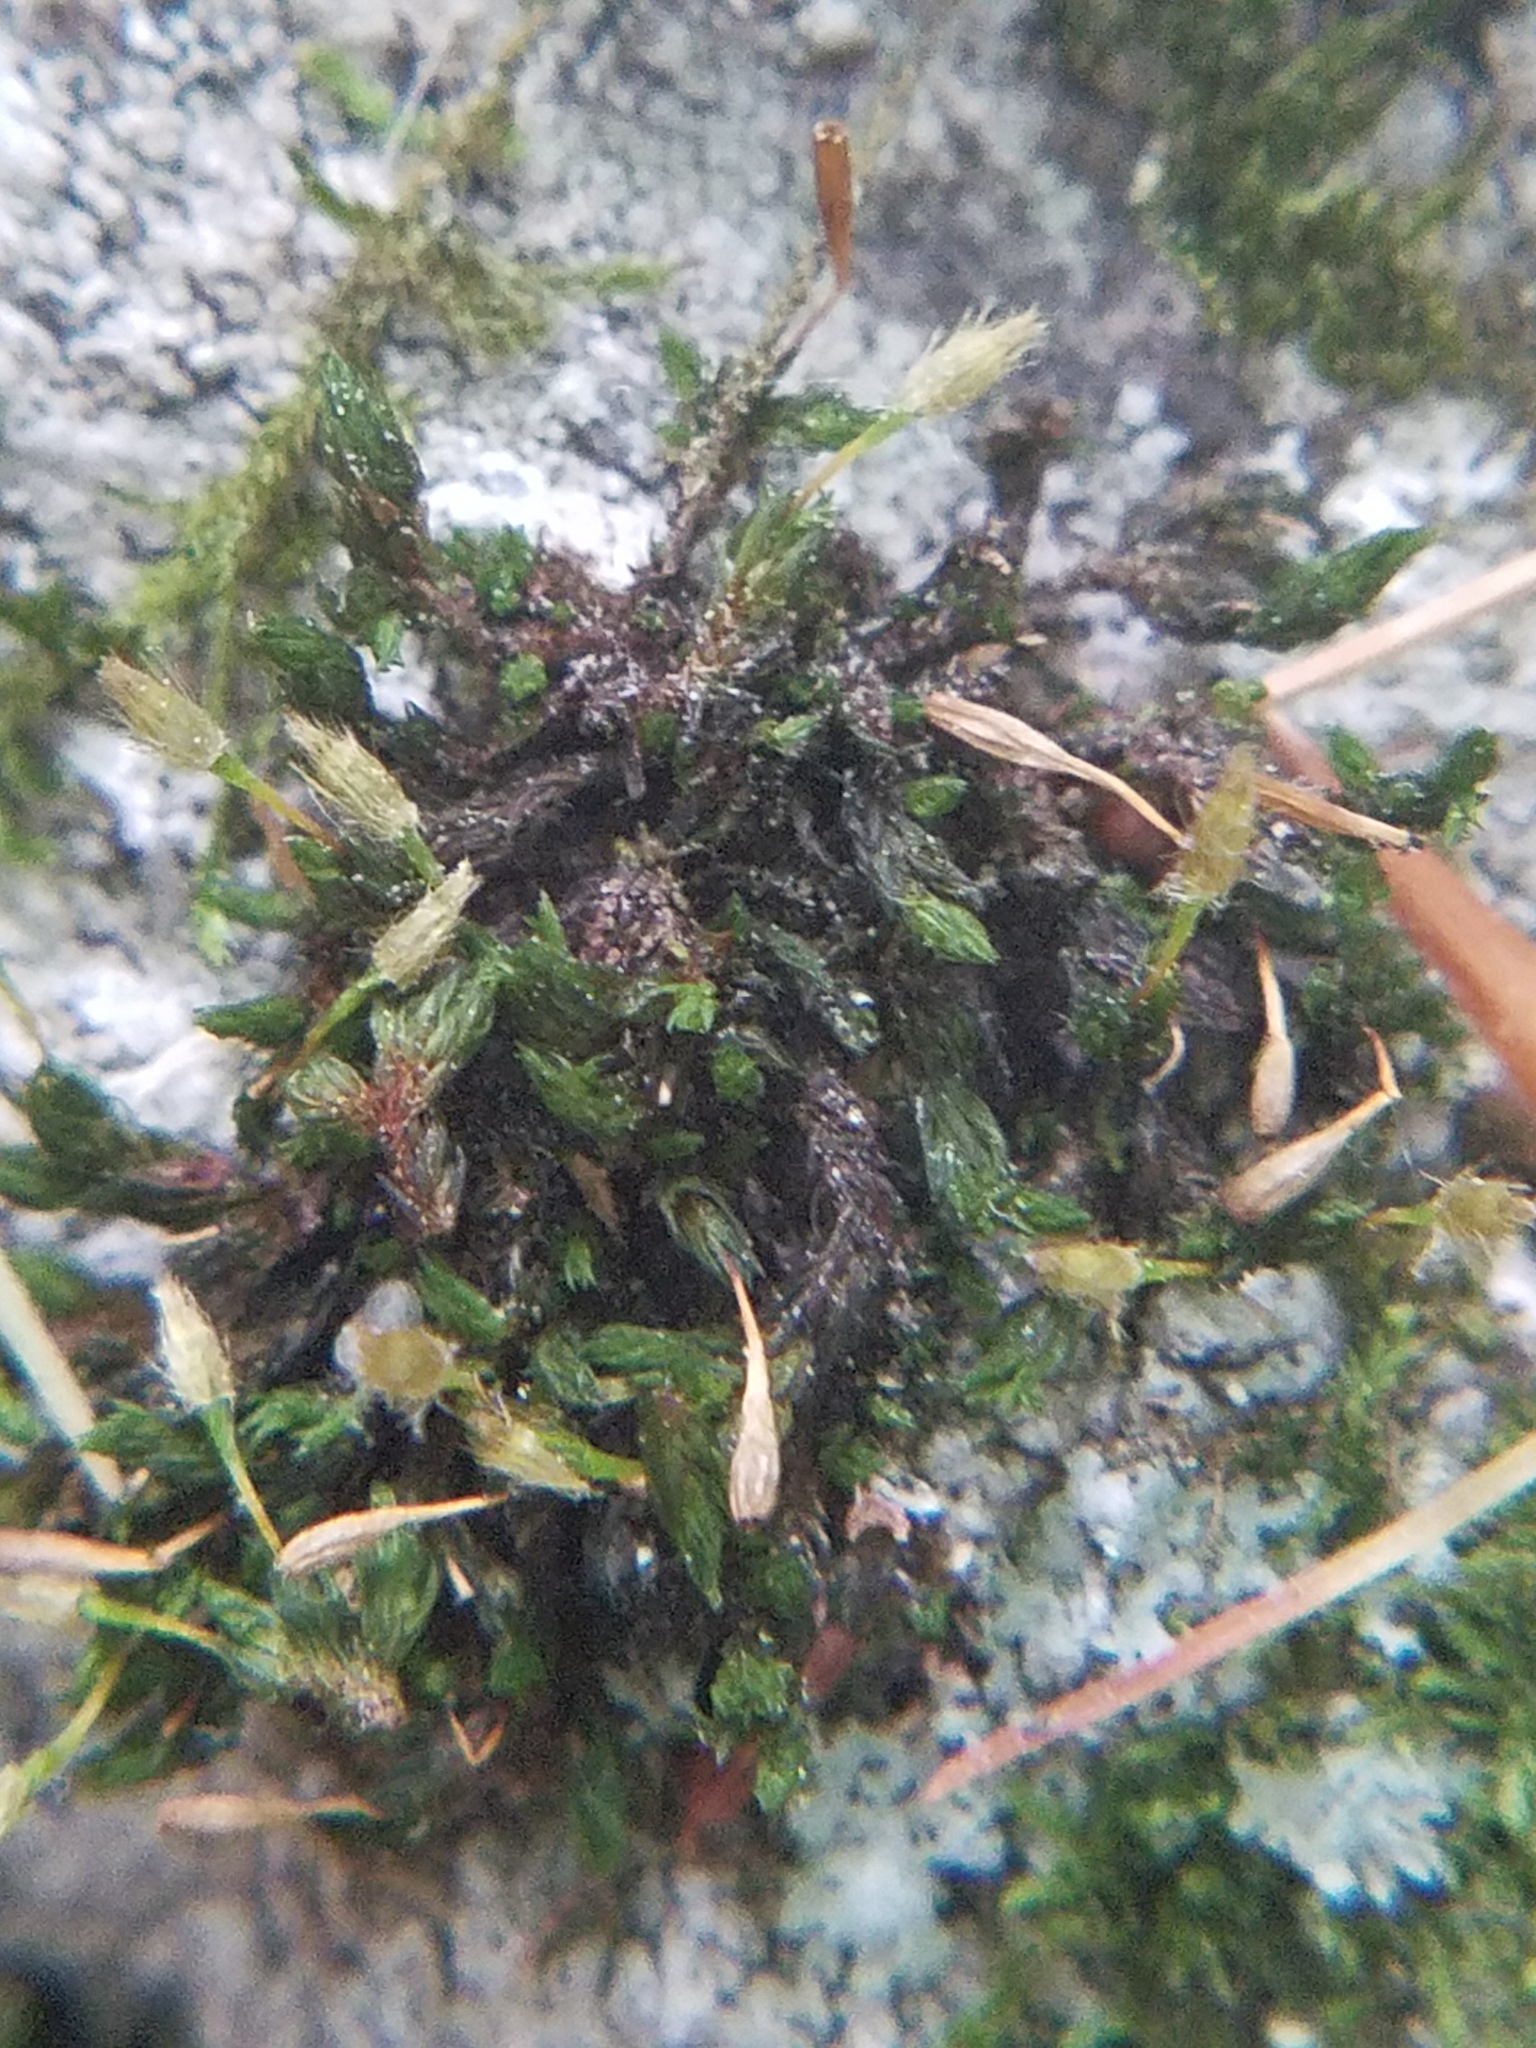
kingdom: Plantae
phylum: Bryophyta
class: Bryopsida
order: Orthotrichales
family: Orthotrichaceae
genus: Ulota
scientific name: Ulota hutchinsiae
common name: Hutchins' pincushion
